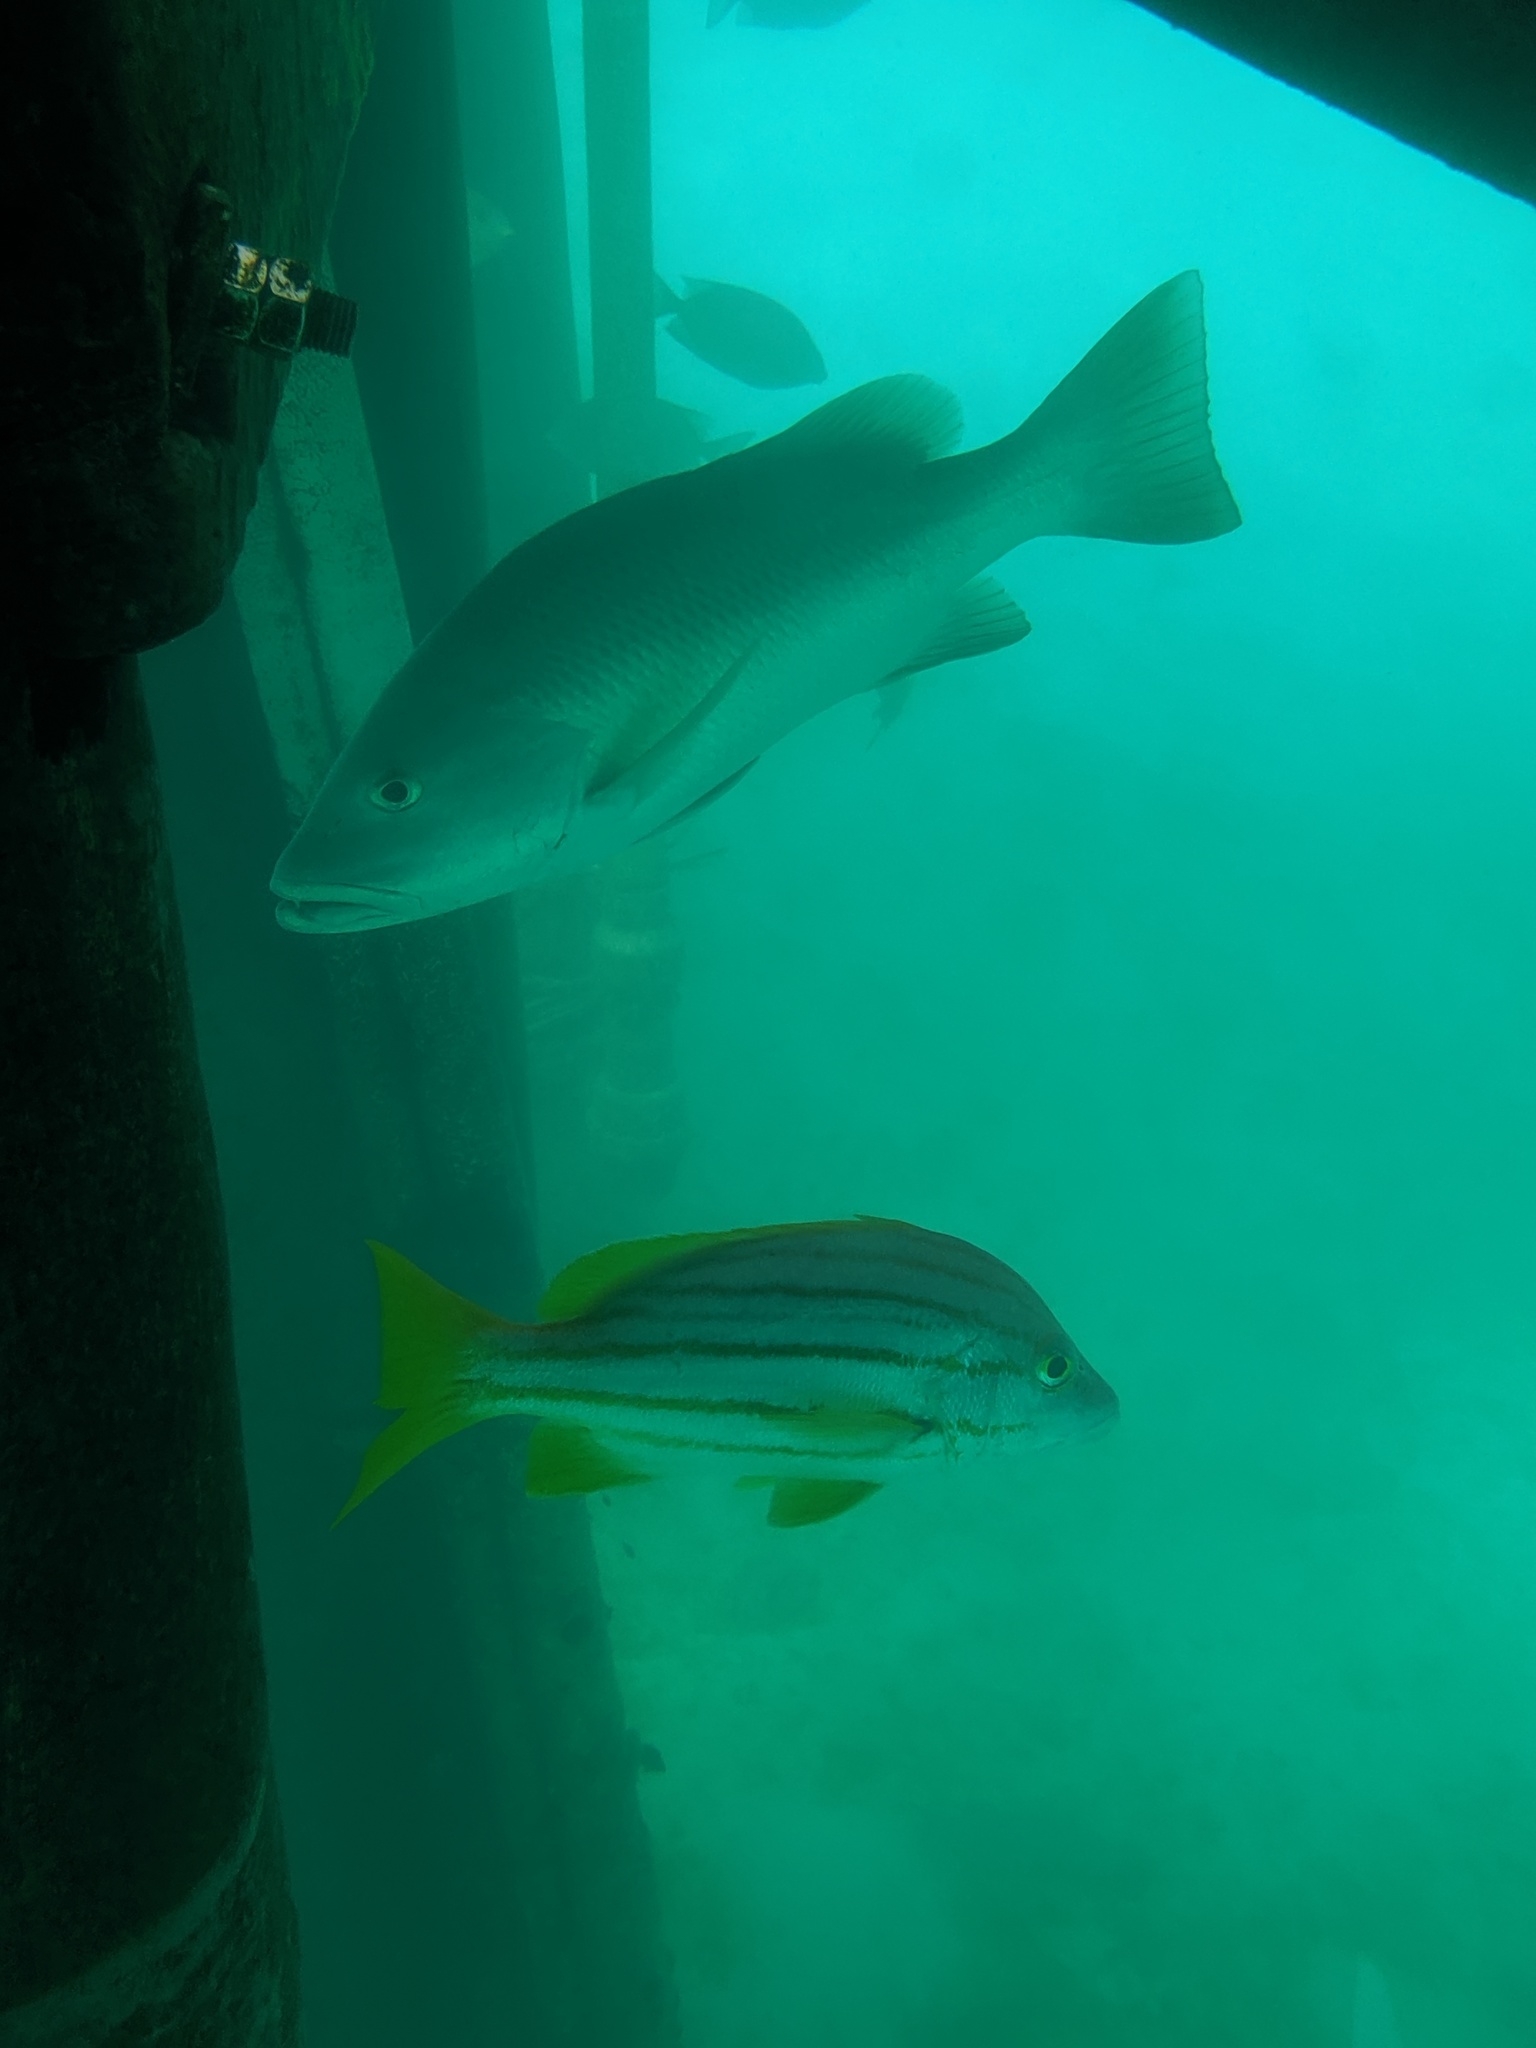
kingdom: Animalia
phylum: Chordata
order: Perciformes
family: Lutjanidae
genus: Lutjanus
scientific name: Lutjanus argentimaculatus
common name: Mangrove red snapper
